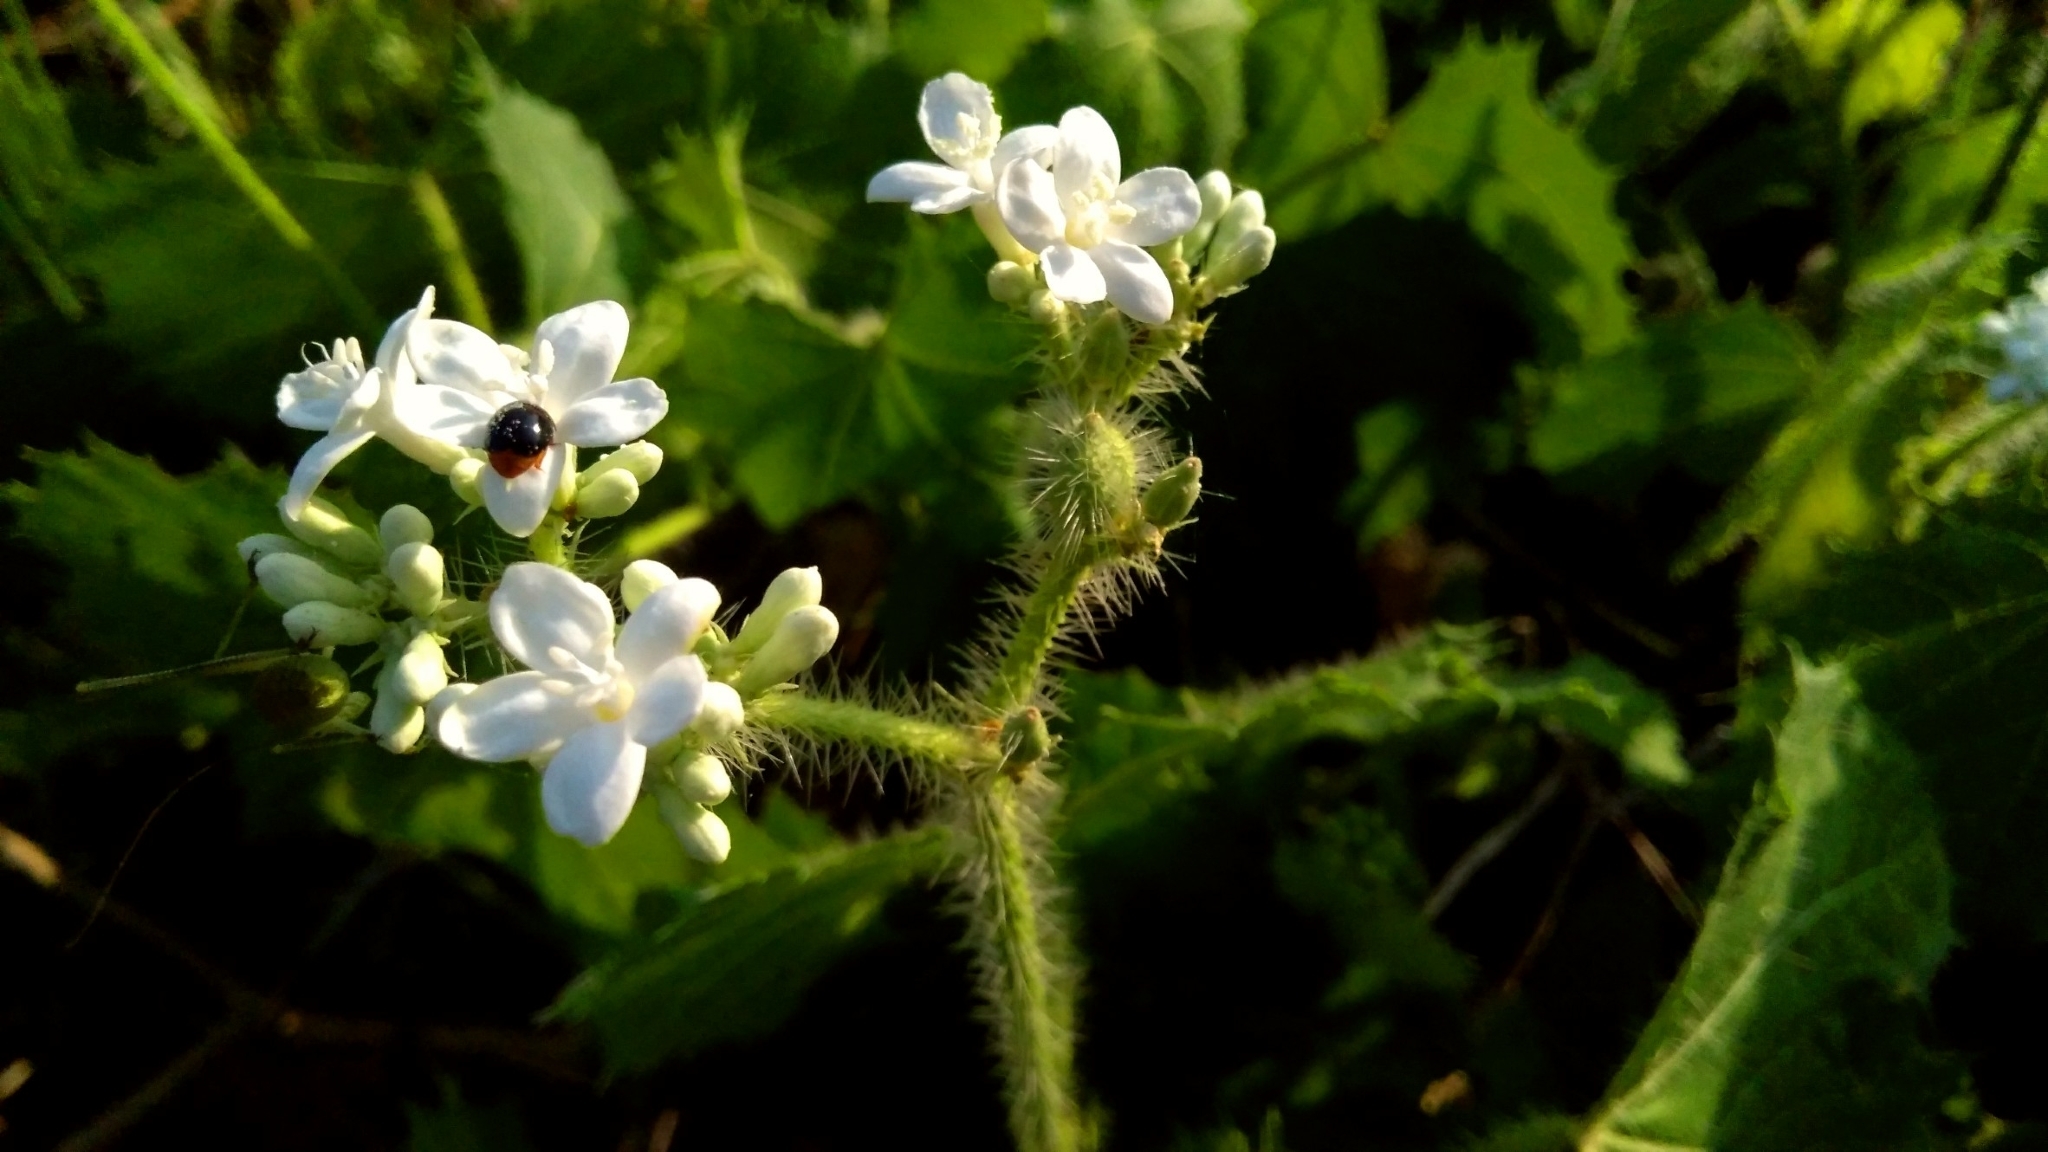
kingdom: Plantae
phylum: Tracheophyta
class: Magnoliopsida
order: Malpighiales
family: Euphorbiaceae
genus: Cnidoscolus
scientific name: Cnidoscolus multilobus
